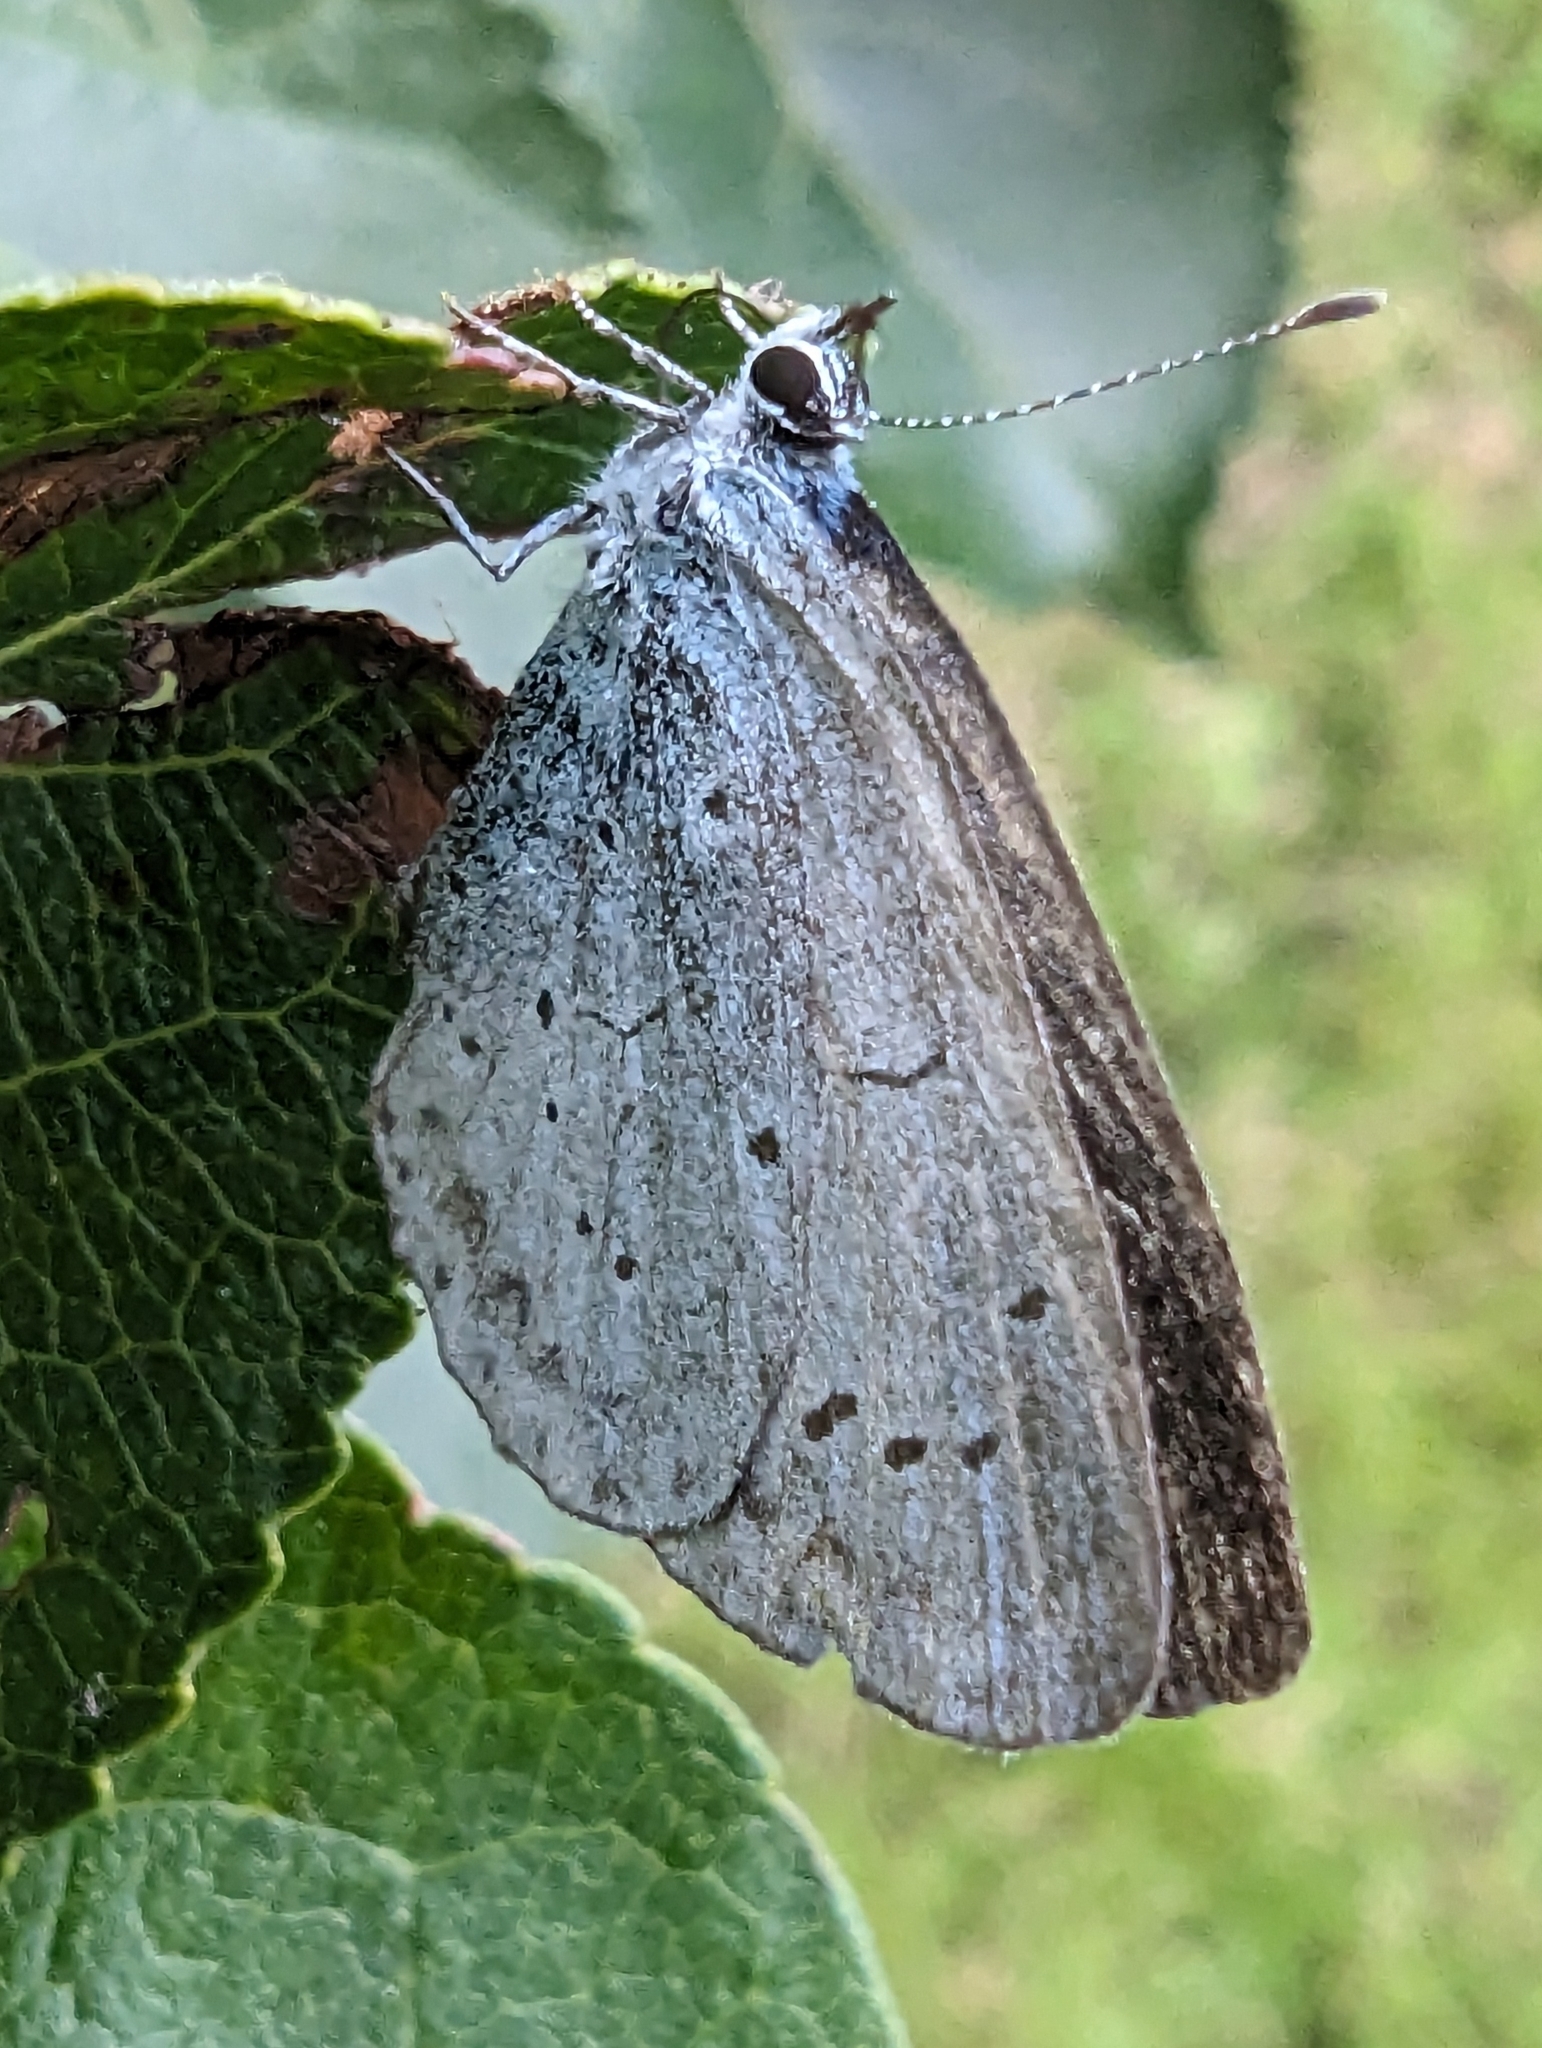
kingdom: Animalia
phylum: Arthropoda
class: Insecta
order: Lepidoptera
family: Lycaenidae
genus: Celastrina
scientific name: Celastrina argiolus
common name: Holly blue
